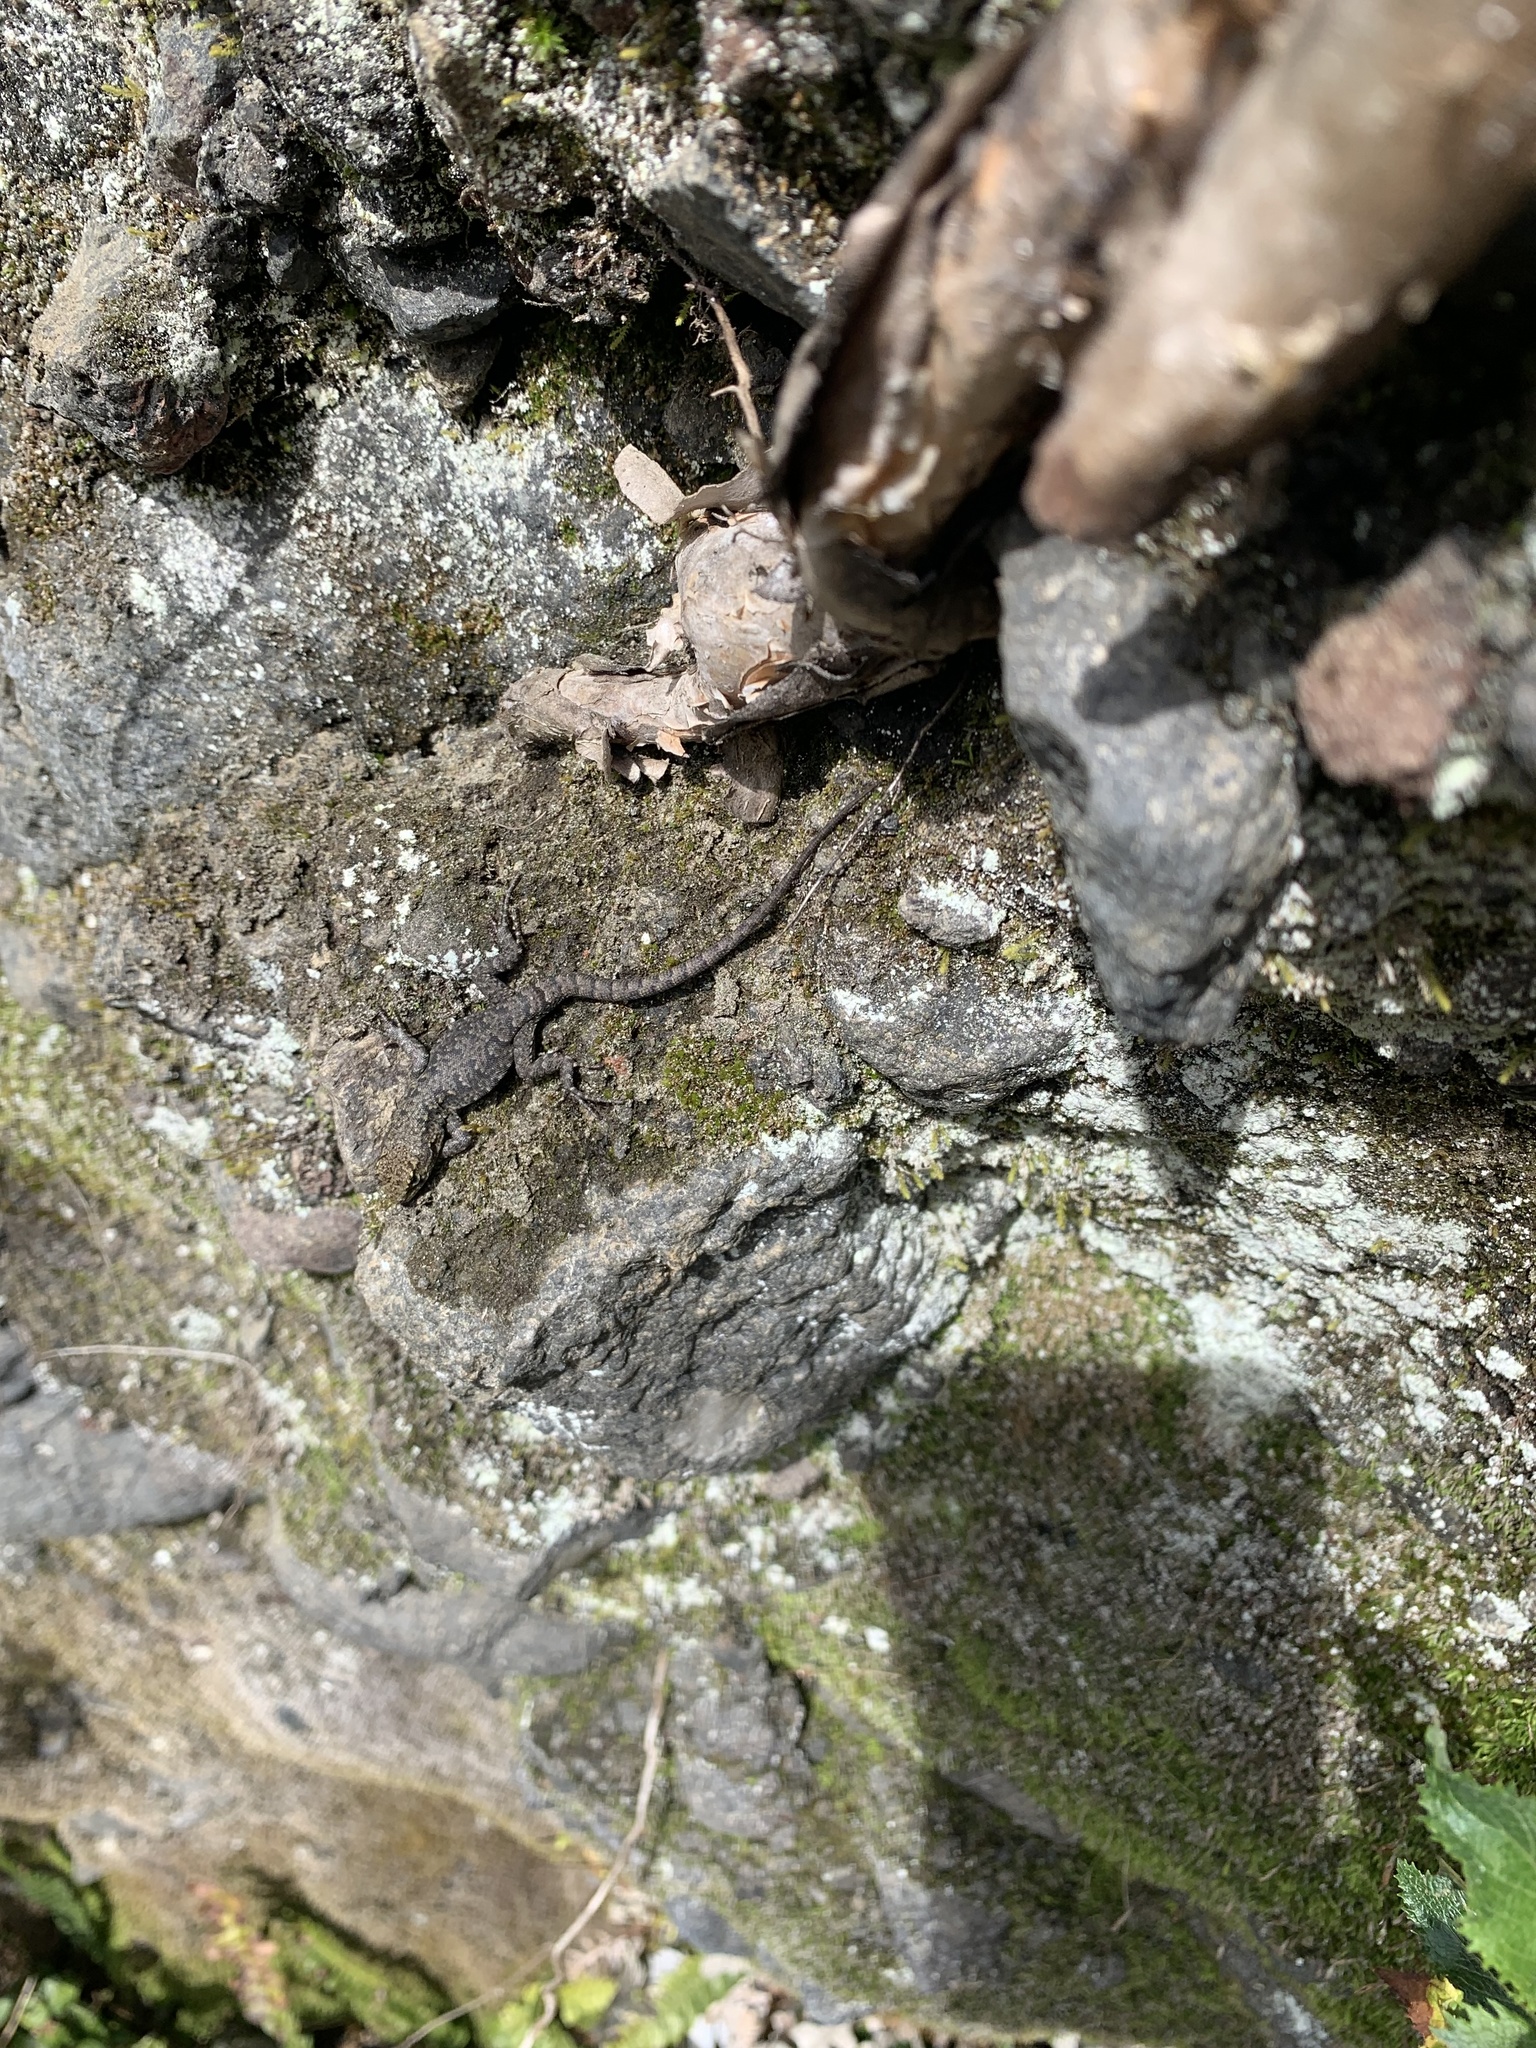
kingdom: Animalia
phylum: Chordata
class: Squamata
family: Liolaemidae
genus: Liolaemus
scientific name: Liolaemus tenuis
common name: Thin tree iguana
